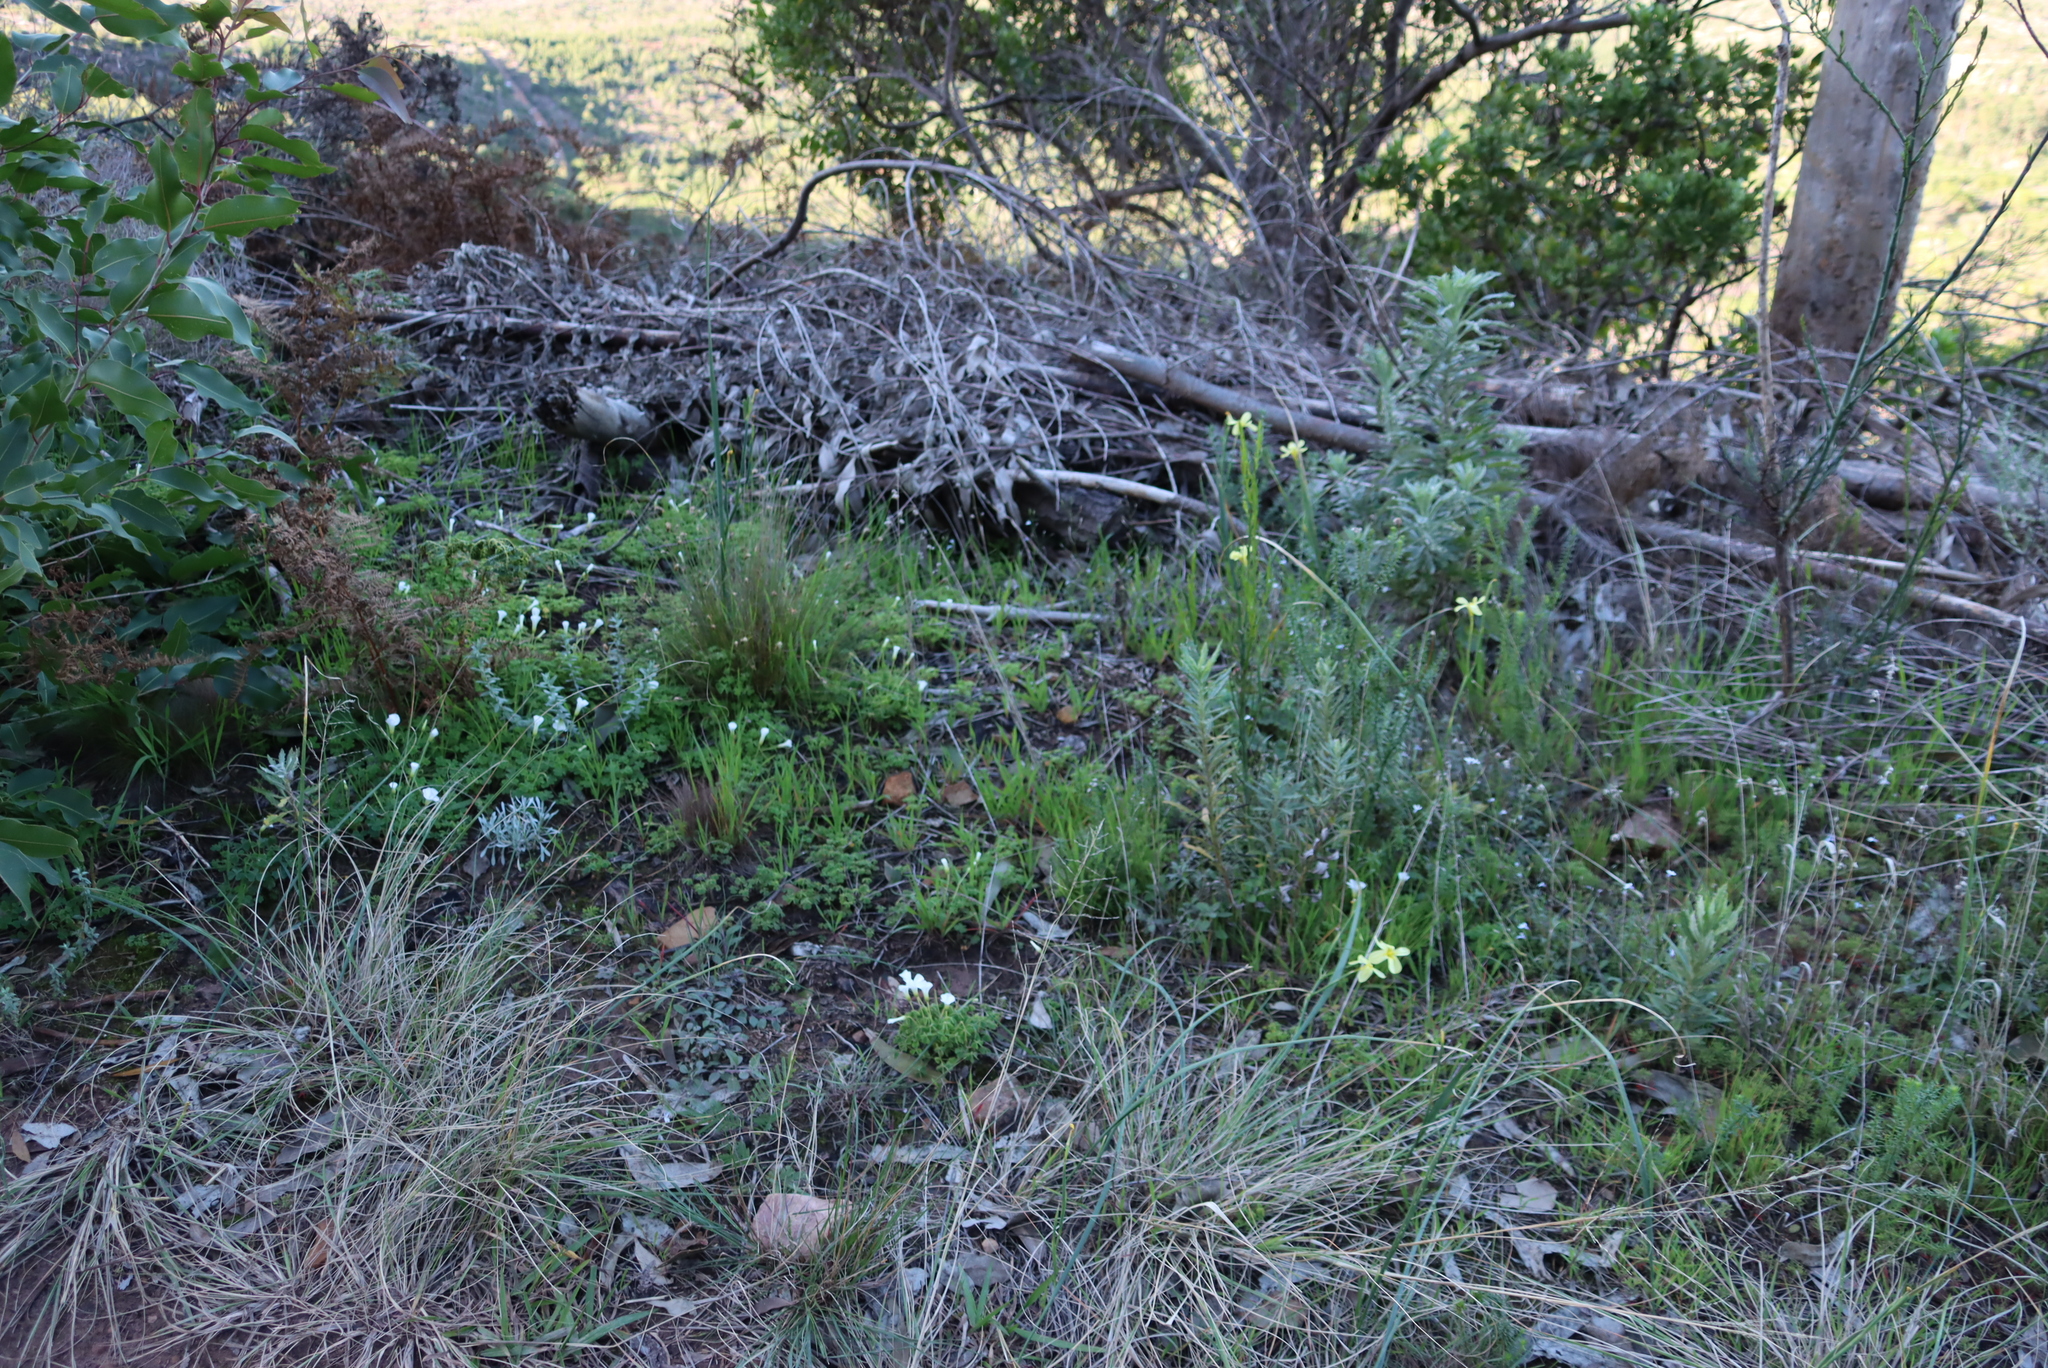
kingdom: Plantae
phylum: Tracheophyta
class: Magnoliopsida
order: Oxalidales
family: Oxalidaceae
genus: Oxalis
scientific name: Oxalis lanata
